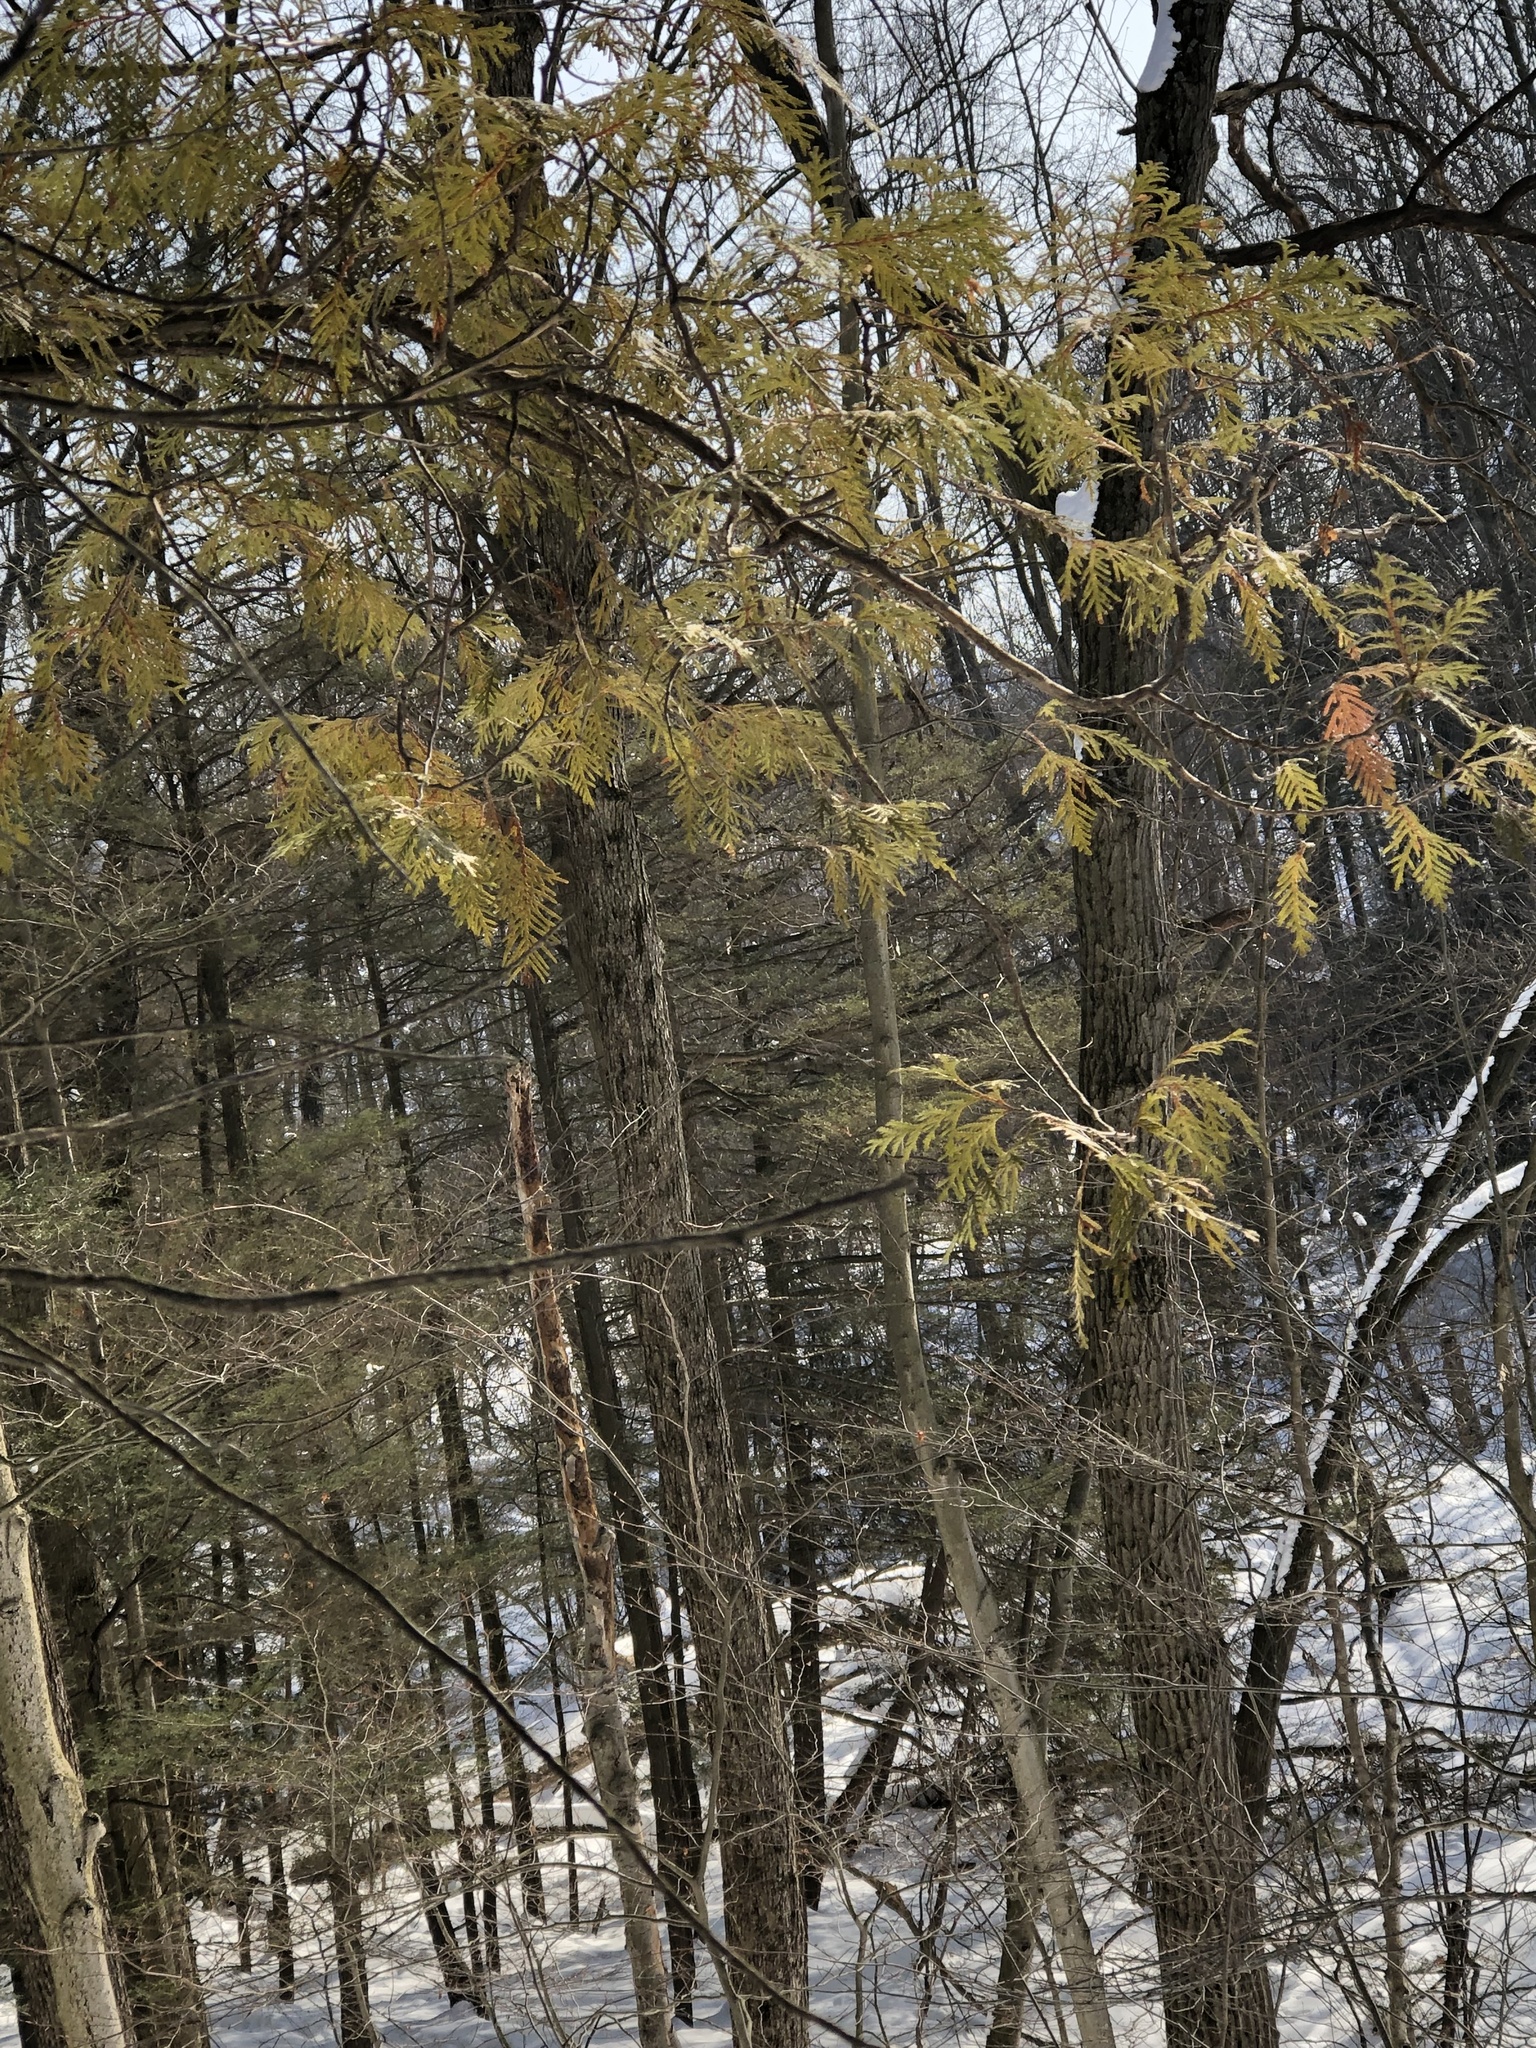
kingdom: Plantae
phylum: Tracheophyta
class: Pinopsida
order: Pinales
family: Cupressaceae
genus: Thuja
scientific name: Thuja occidentalis
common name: Northern white-cedar
